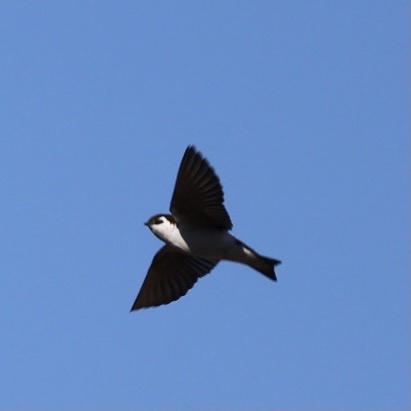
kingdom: Animalia
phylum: Chordata
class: Aves
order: Passeriformes
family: Hirundinidae
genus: Tachycineta
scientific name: Tachycineta thalassina
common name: Violet-green swallow
